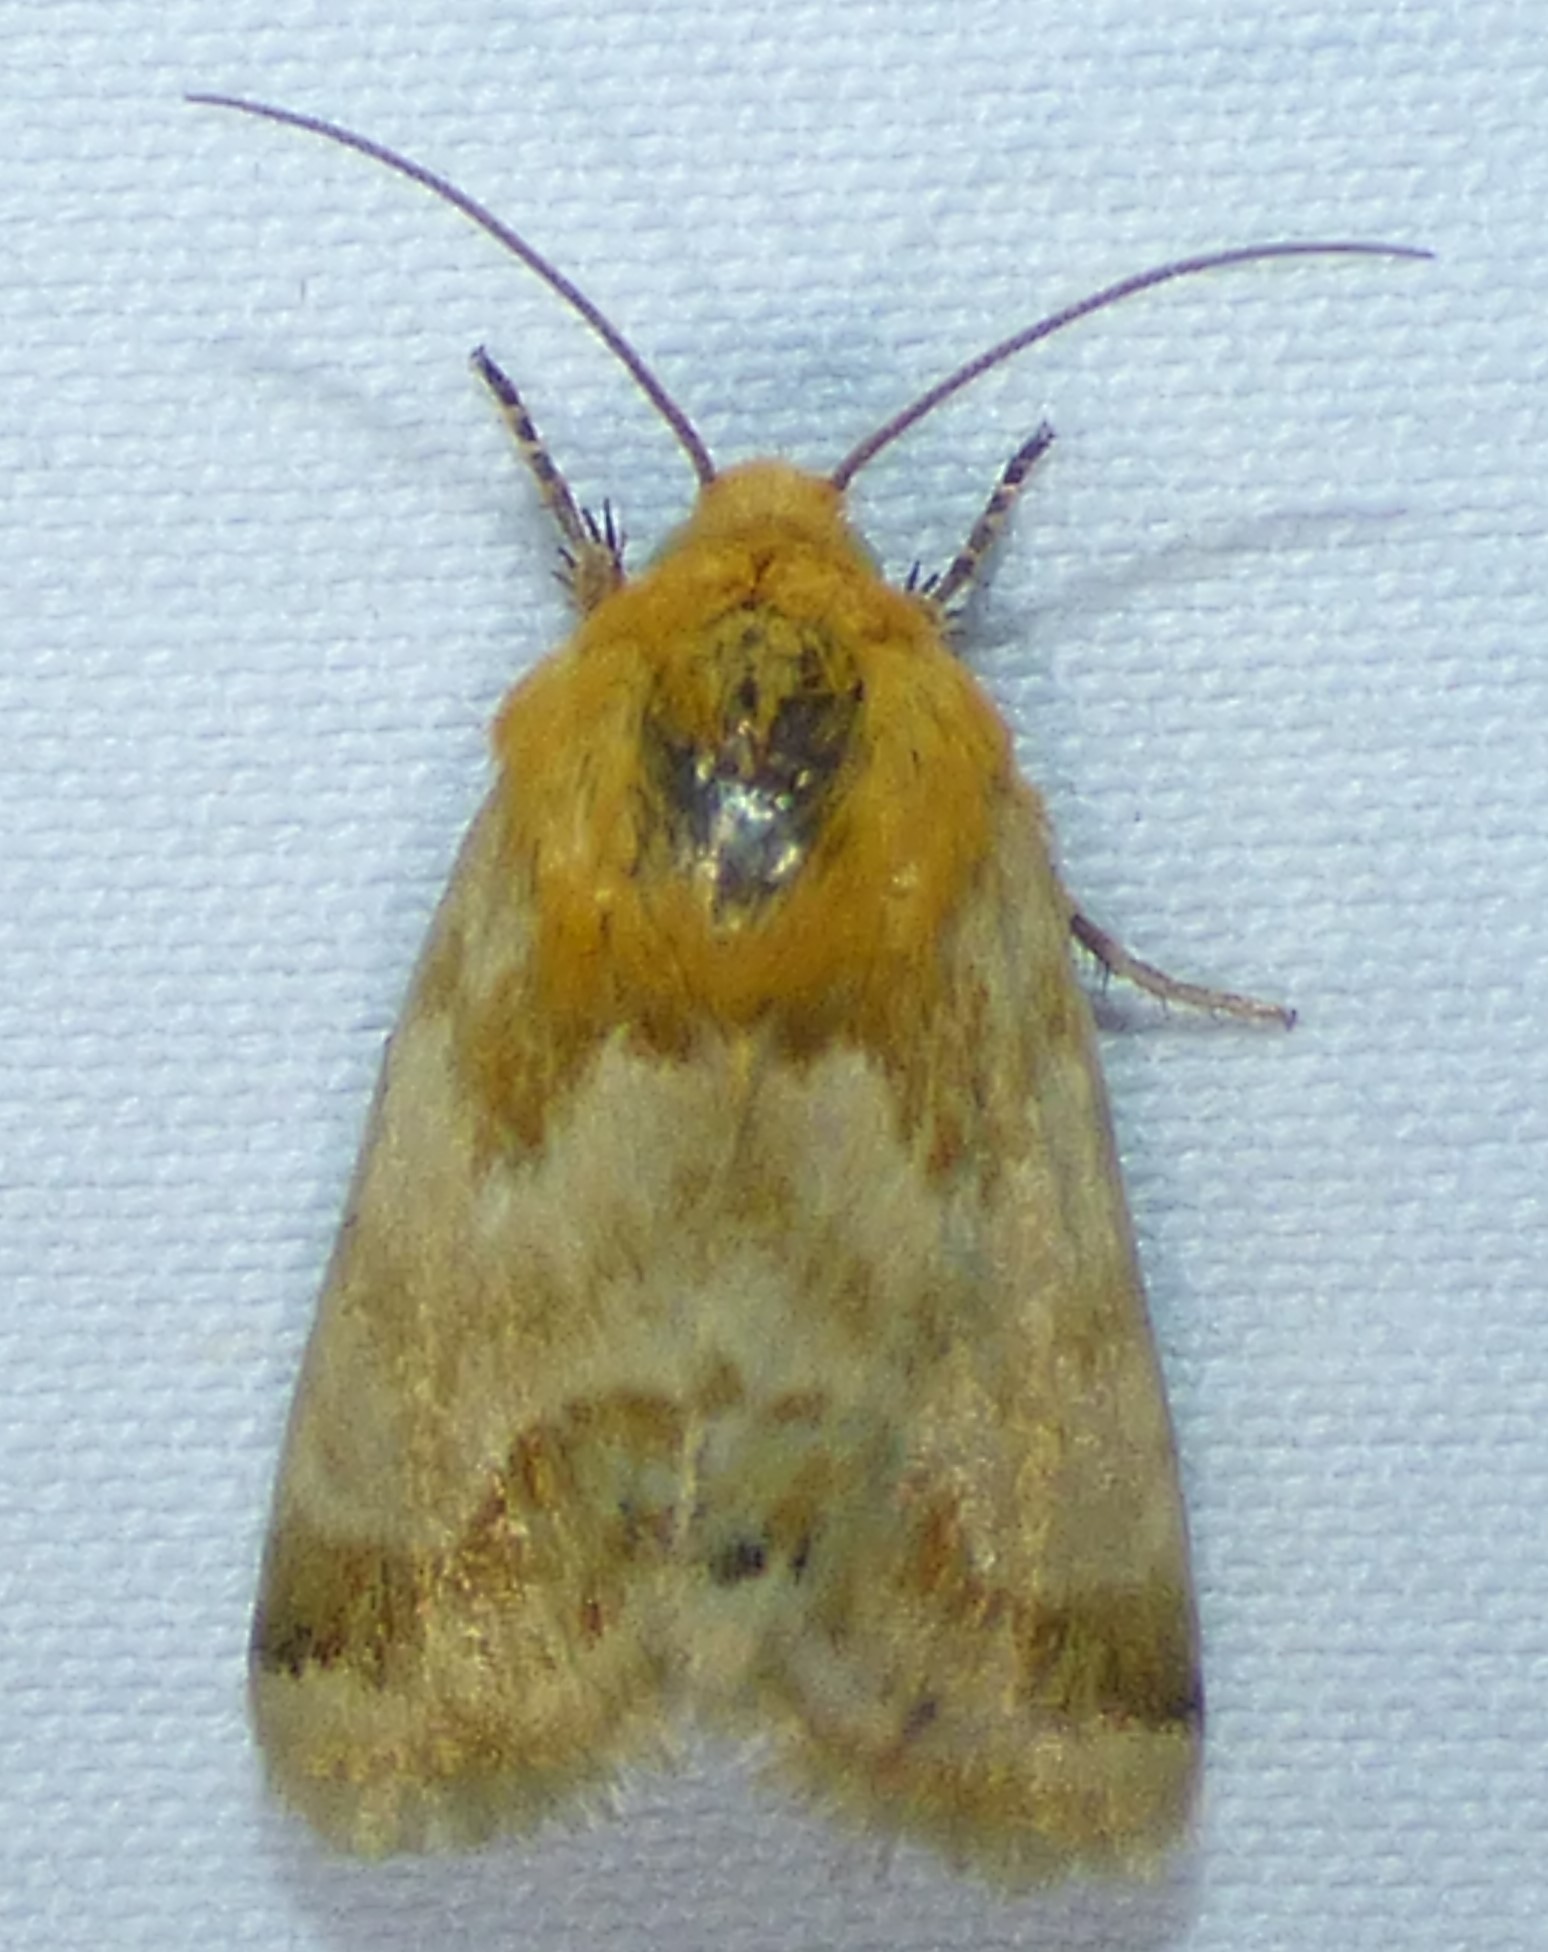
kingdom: Animalia
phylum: Arthropoda
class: Insecta
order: Lepidoptera
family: Noctuidae
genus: Schinia
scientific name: Schinia siren
